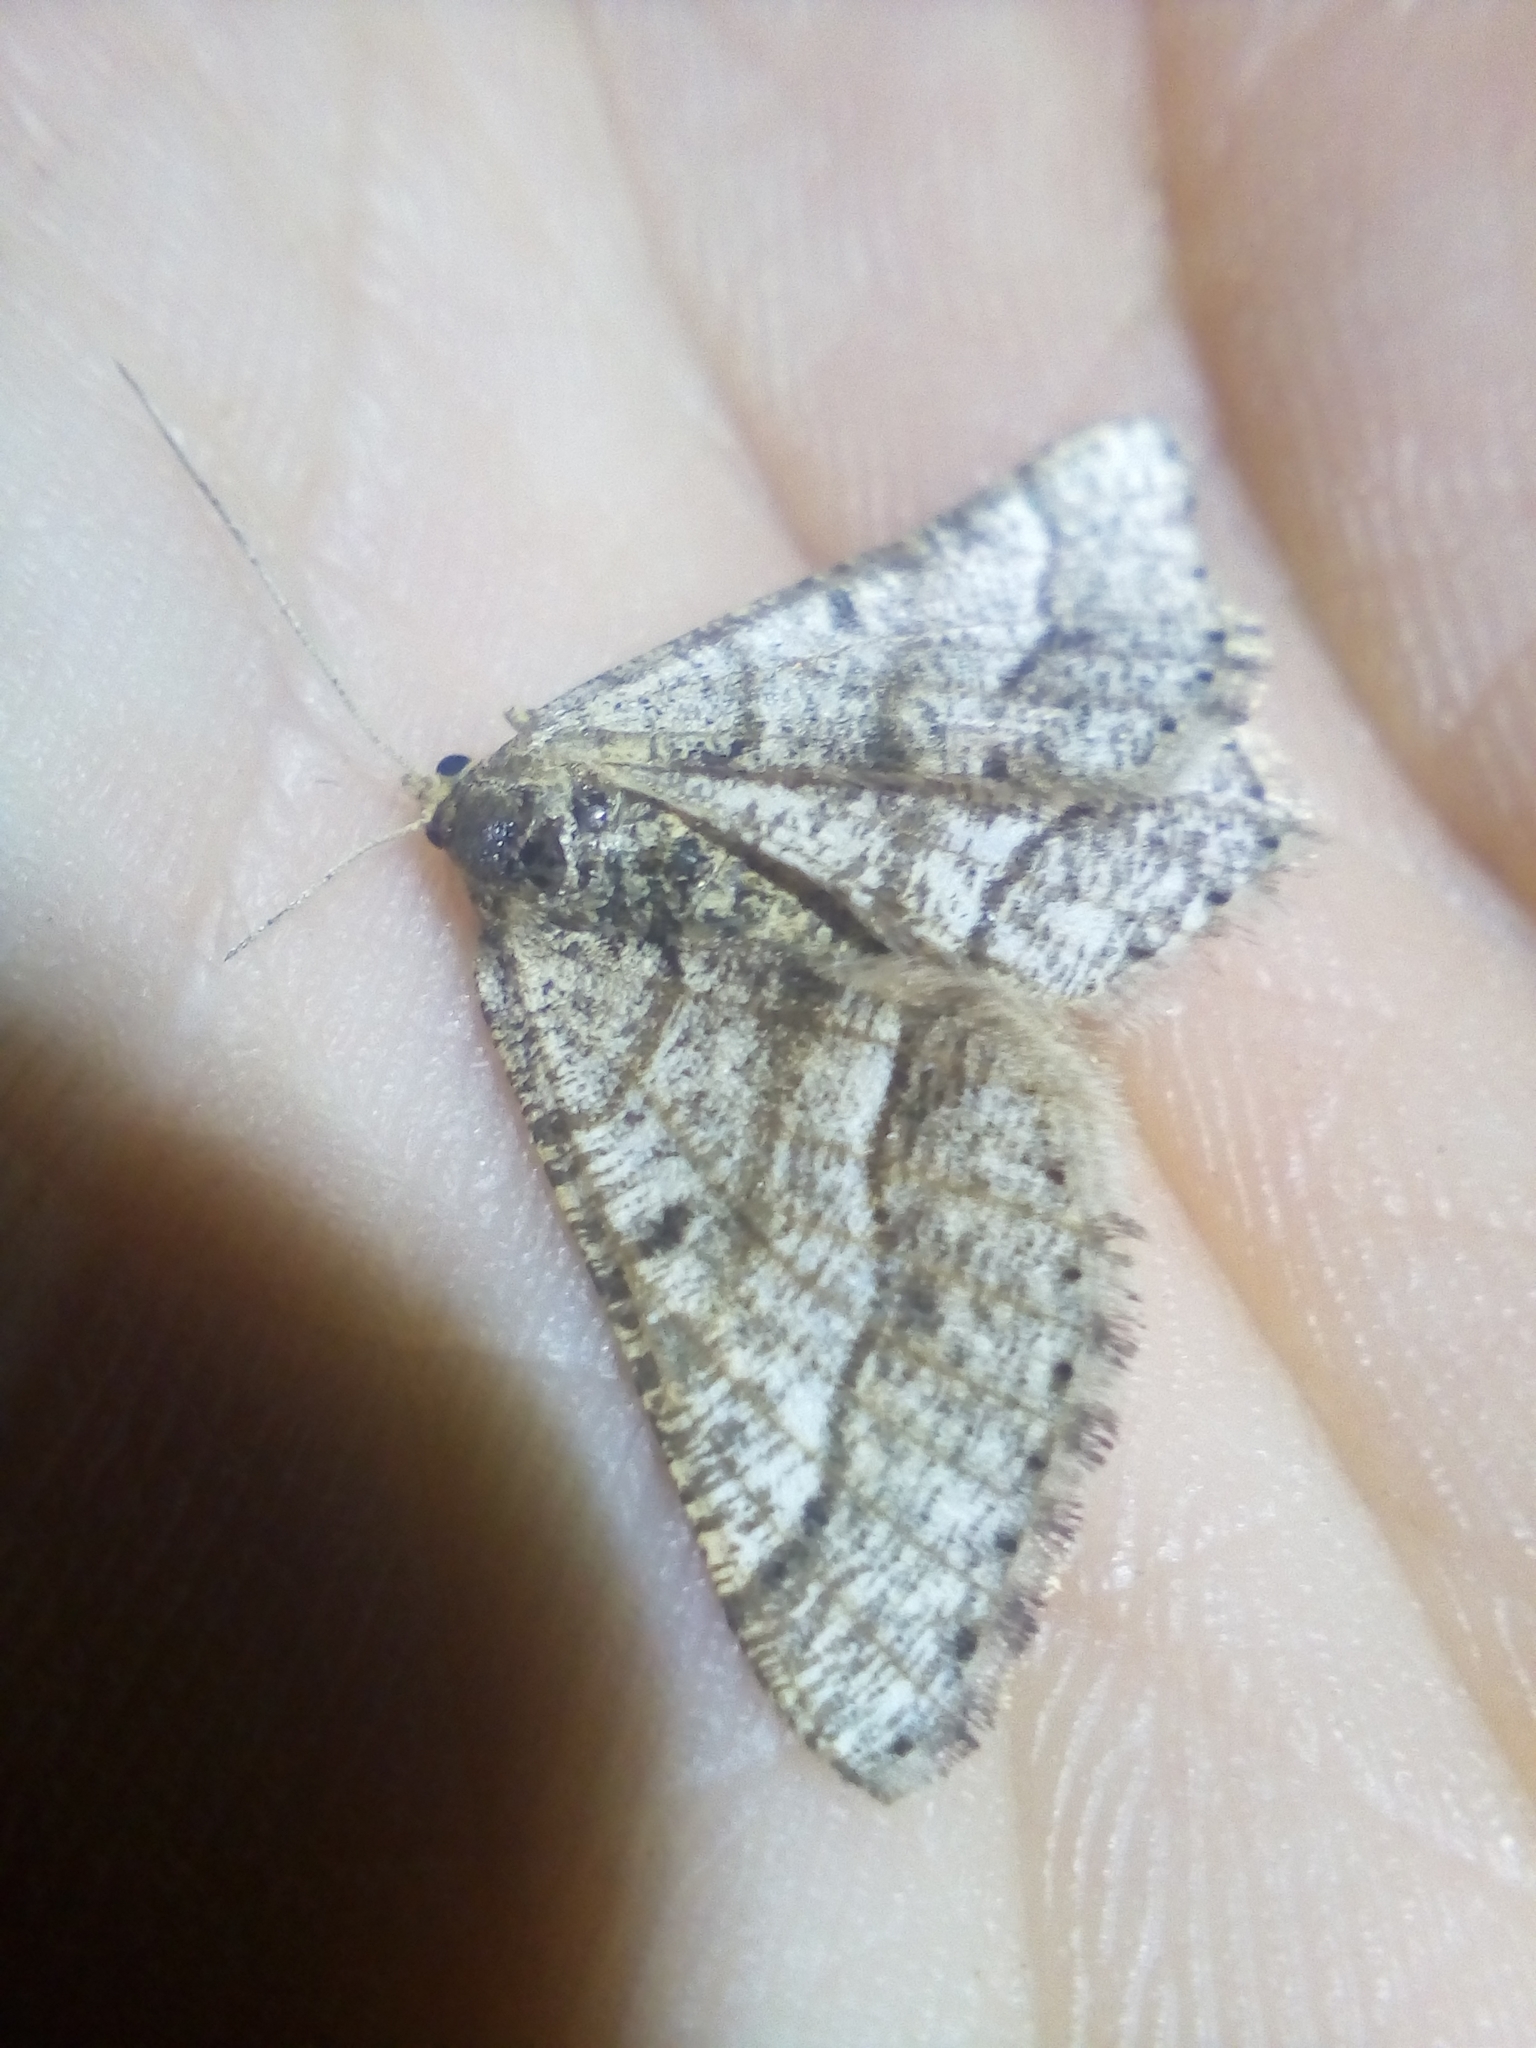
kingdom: Animalia
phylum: Arthropoda
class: Insecta
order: Lepidoptera
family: Geometridae
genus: Tephrina
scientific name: Tephrina murinaria
